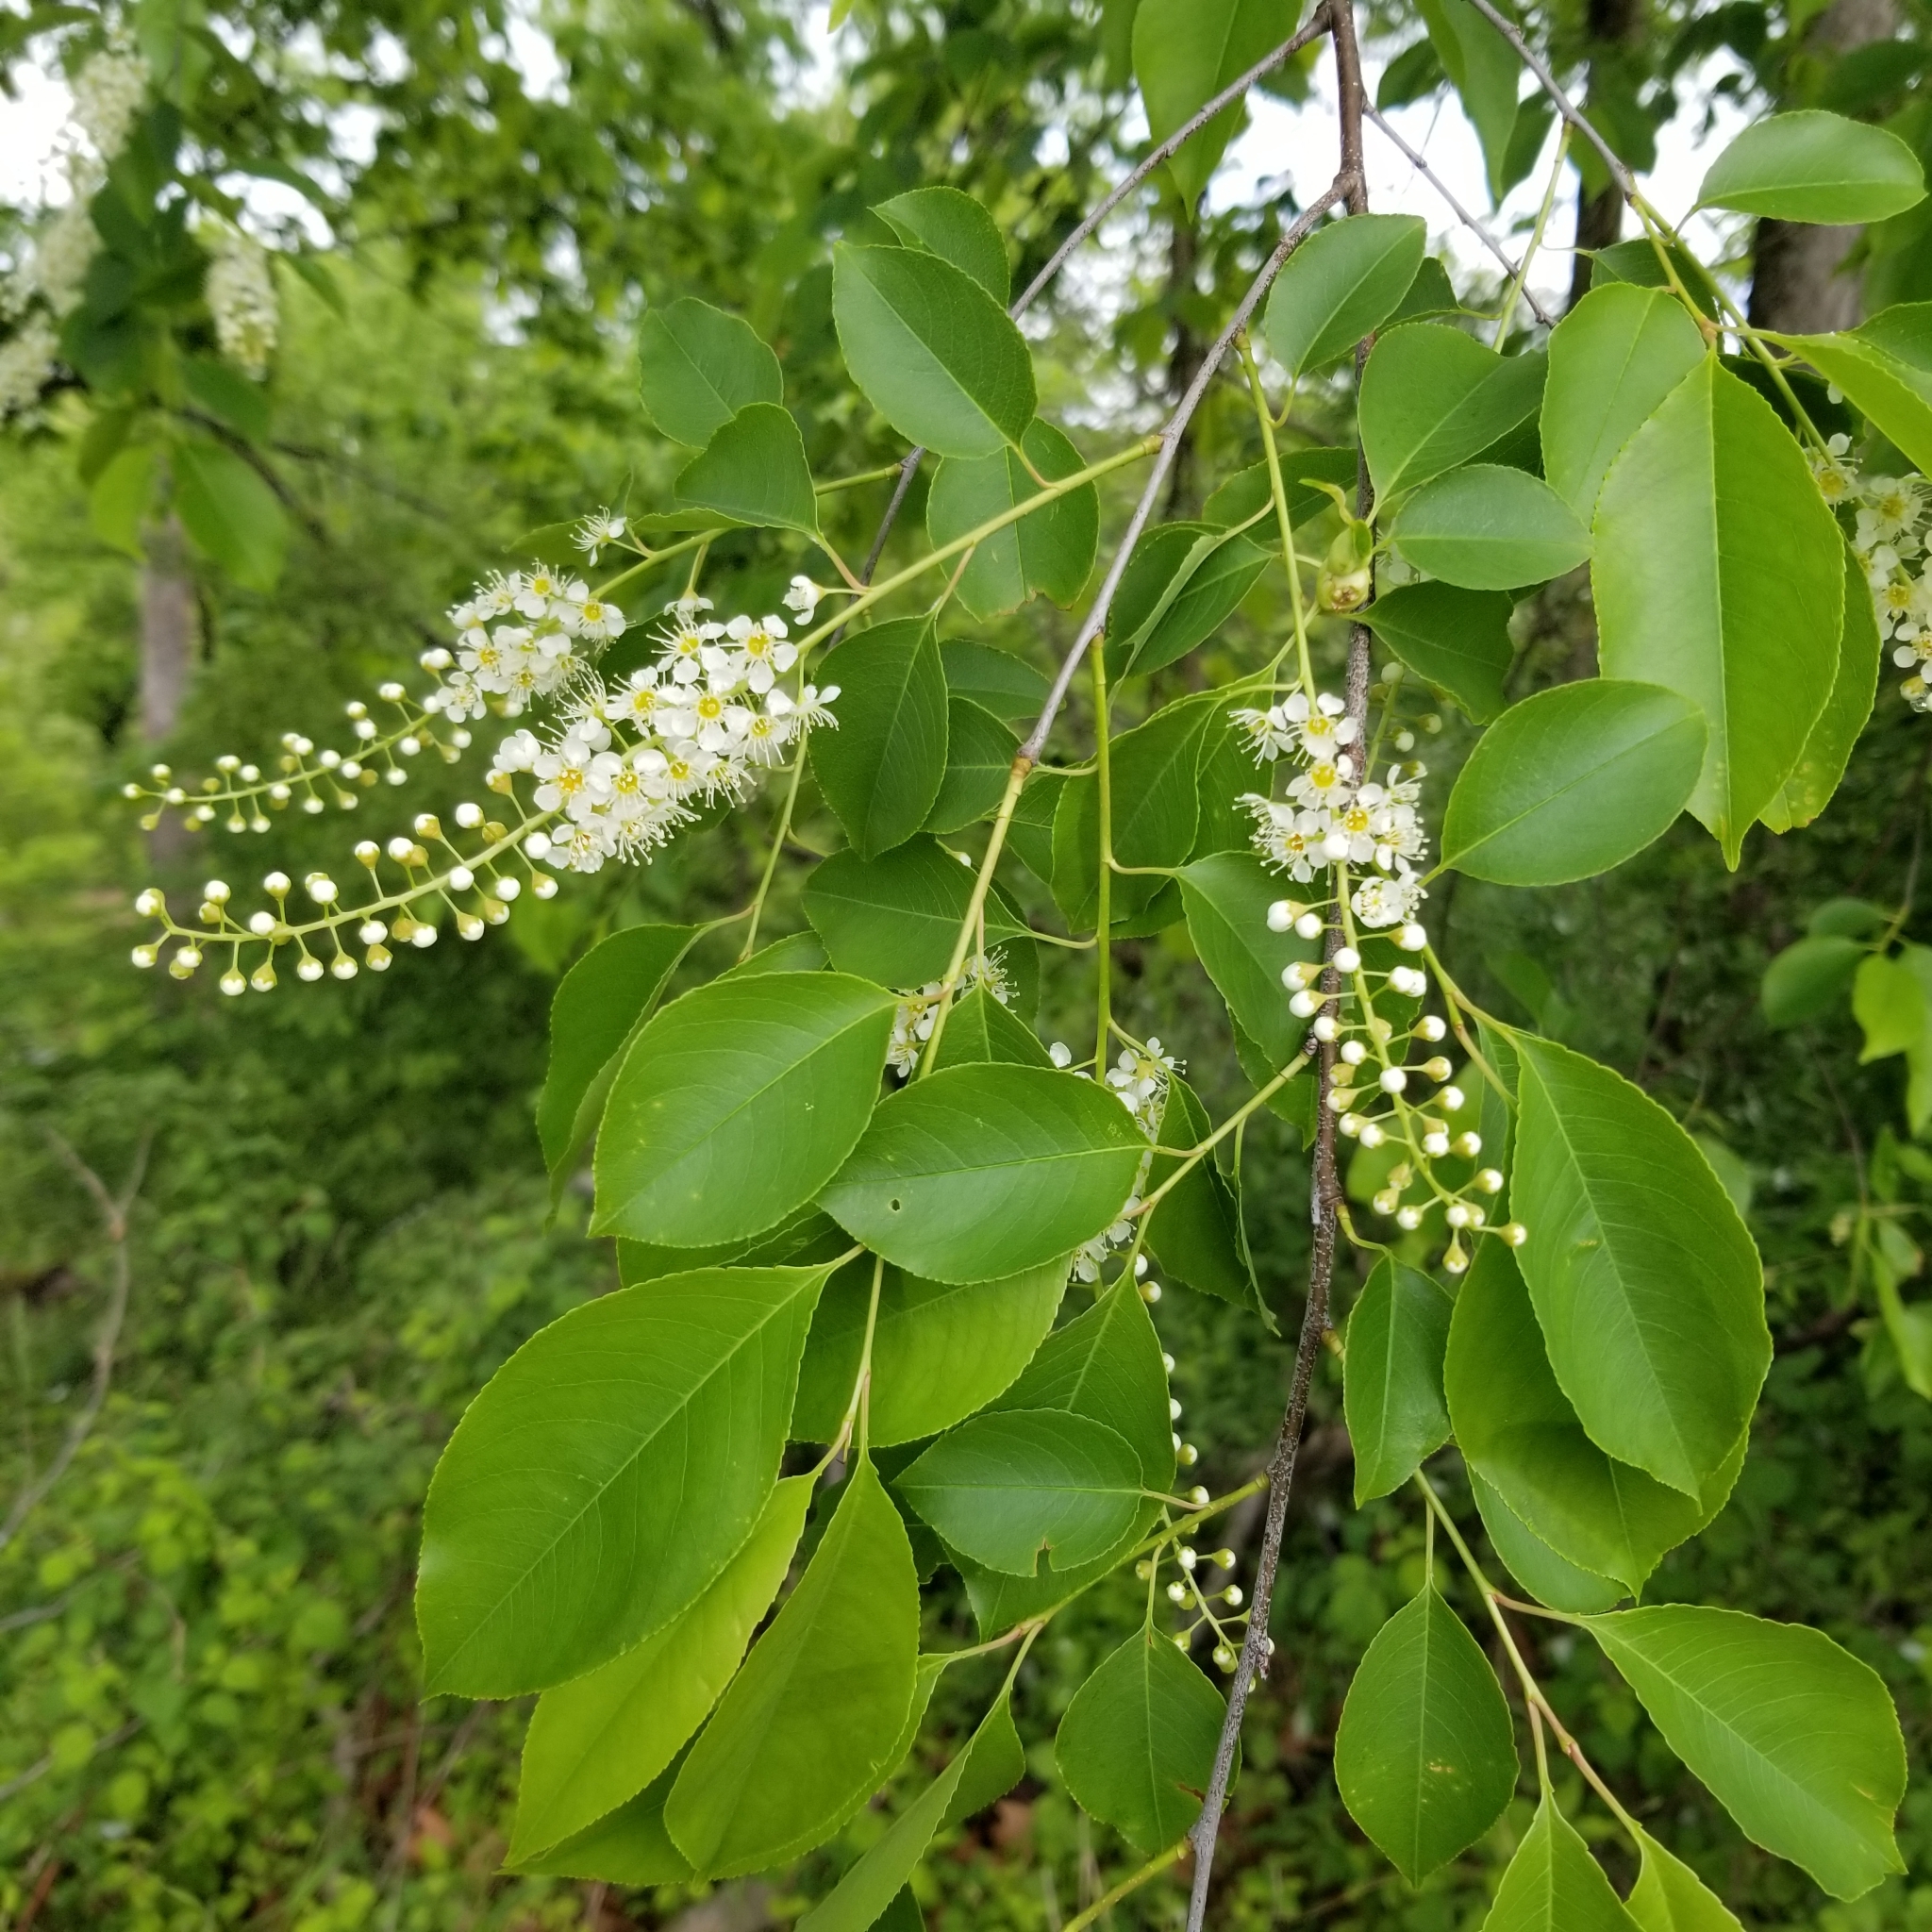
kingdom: Plantae
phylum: Tracheophyta
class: Magnoliopsida
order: Rosales
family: Rosaceae
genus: Prunus
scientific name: Prunus serotina
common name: Black cherry
